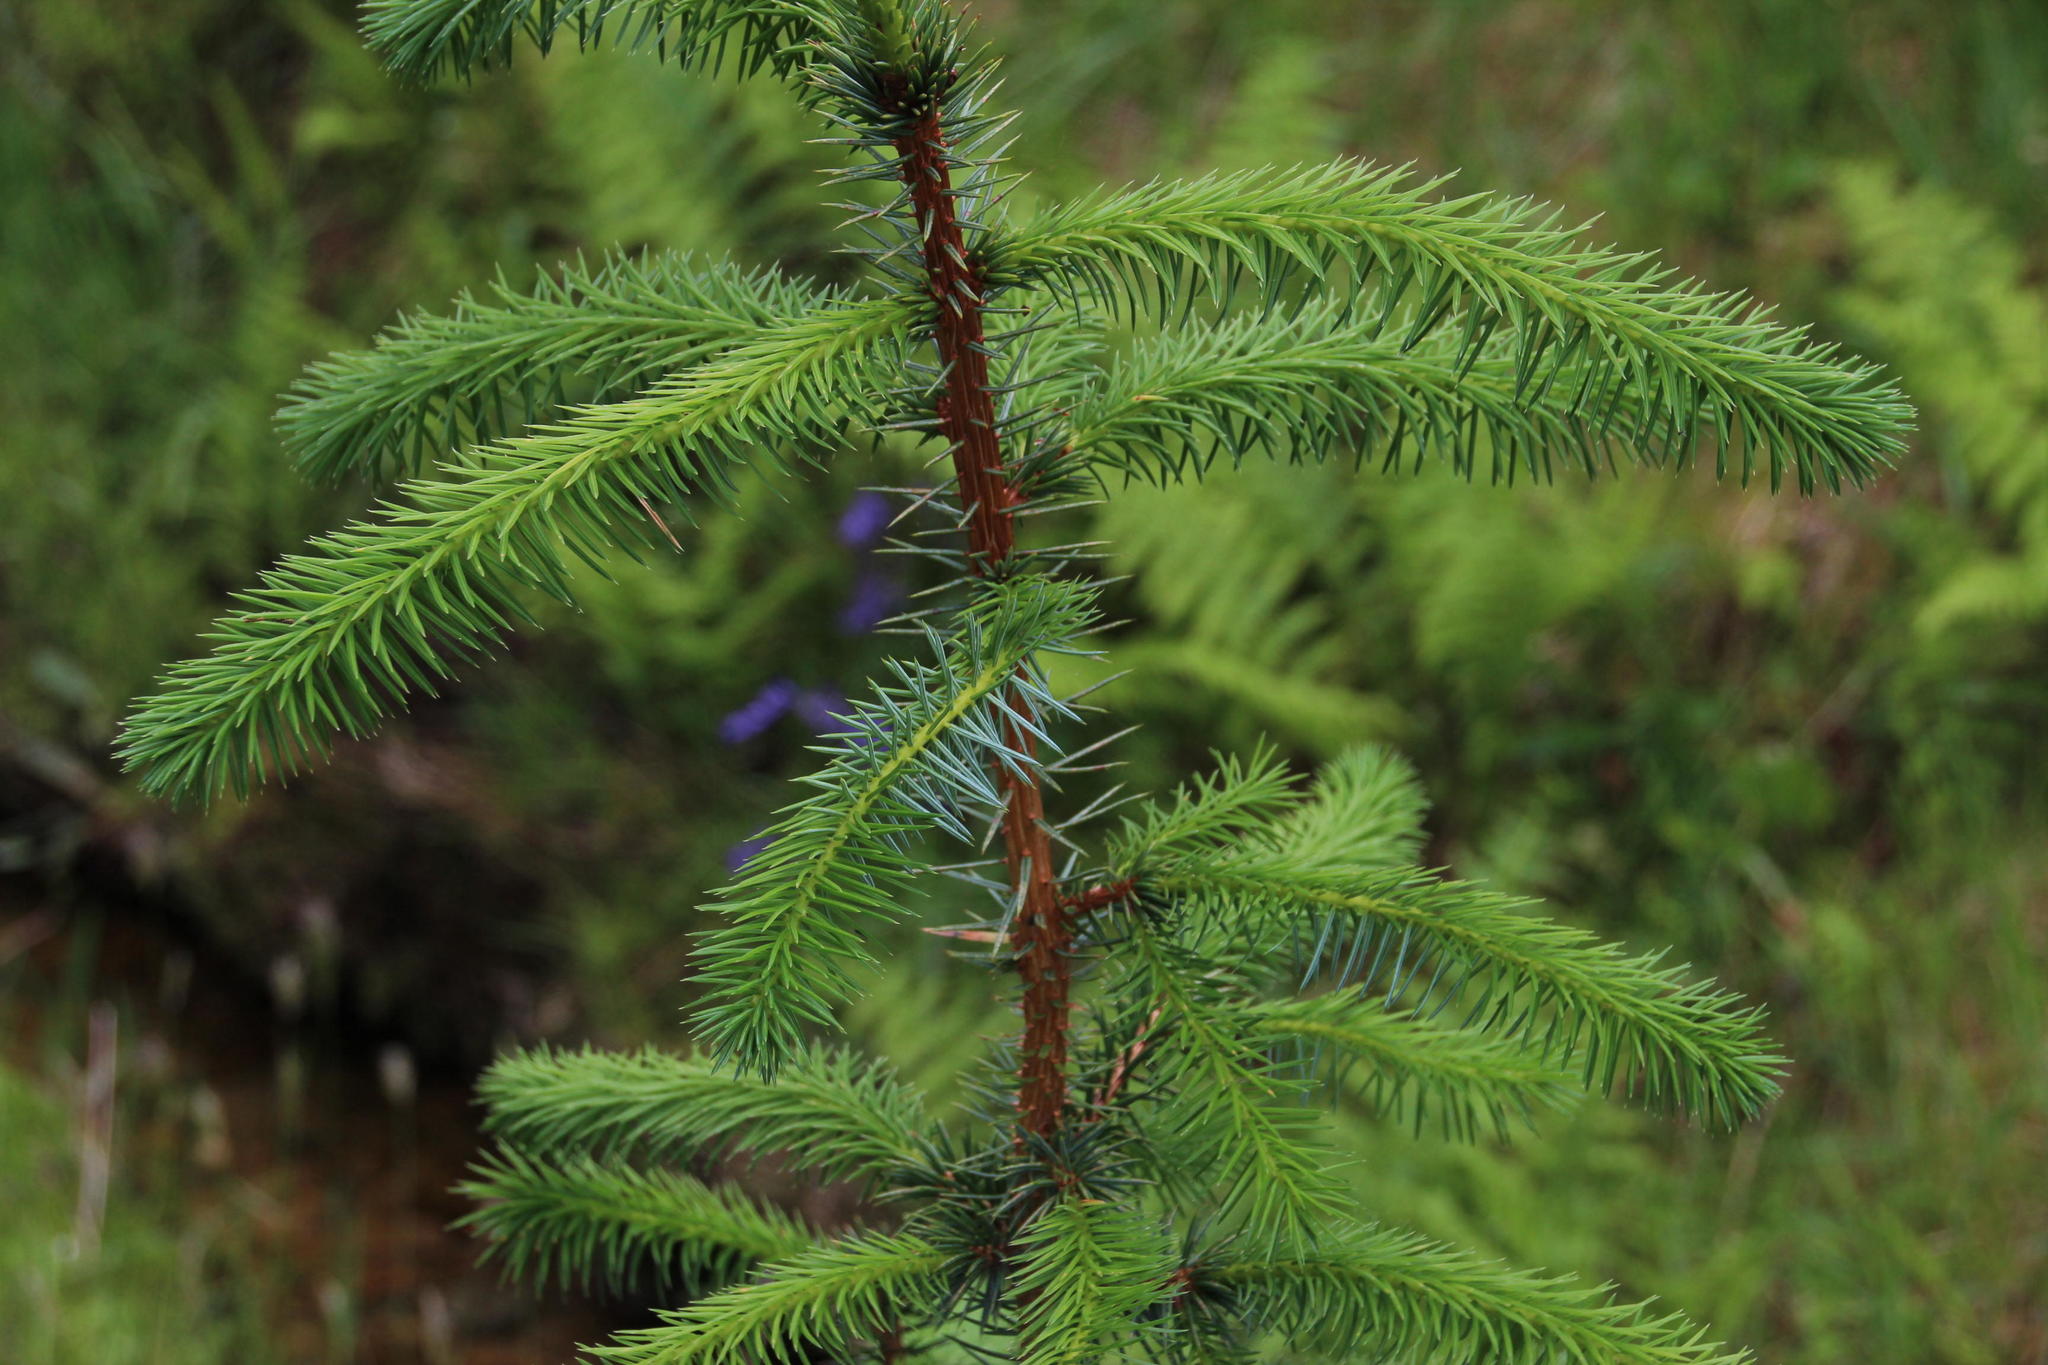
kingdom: Plantae
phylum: Tracheophyta
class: Pinopsida
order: Pinales
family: Pinaceae
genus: Picea
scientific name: Picea sitchensis
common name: Sitka spruce
